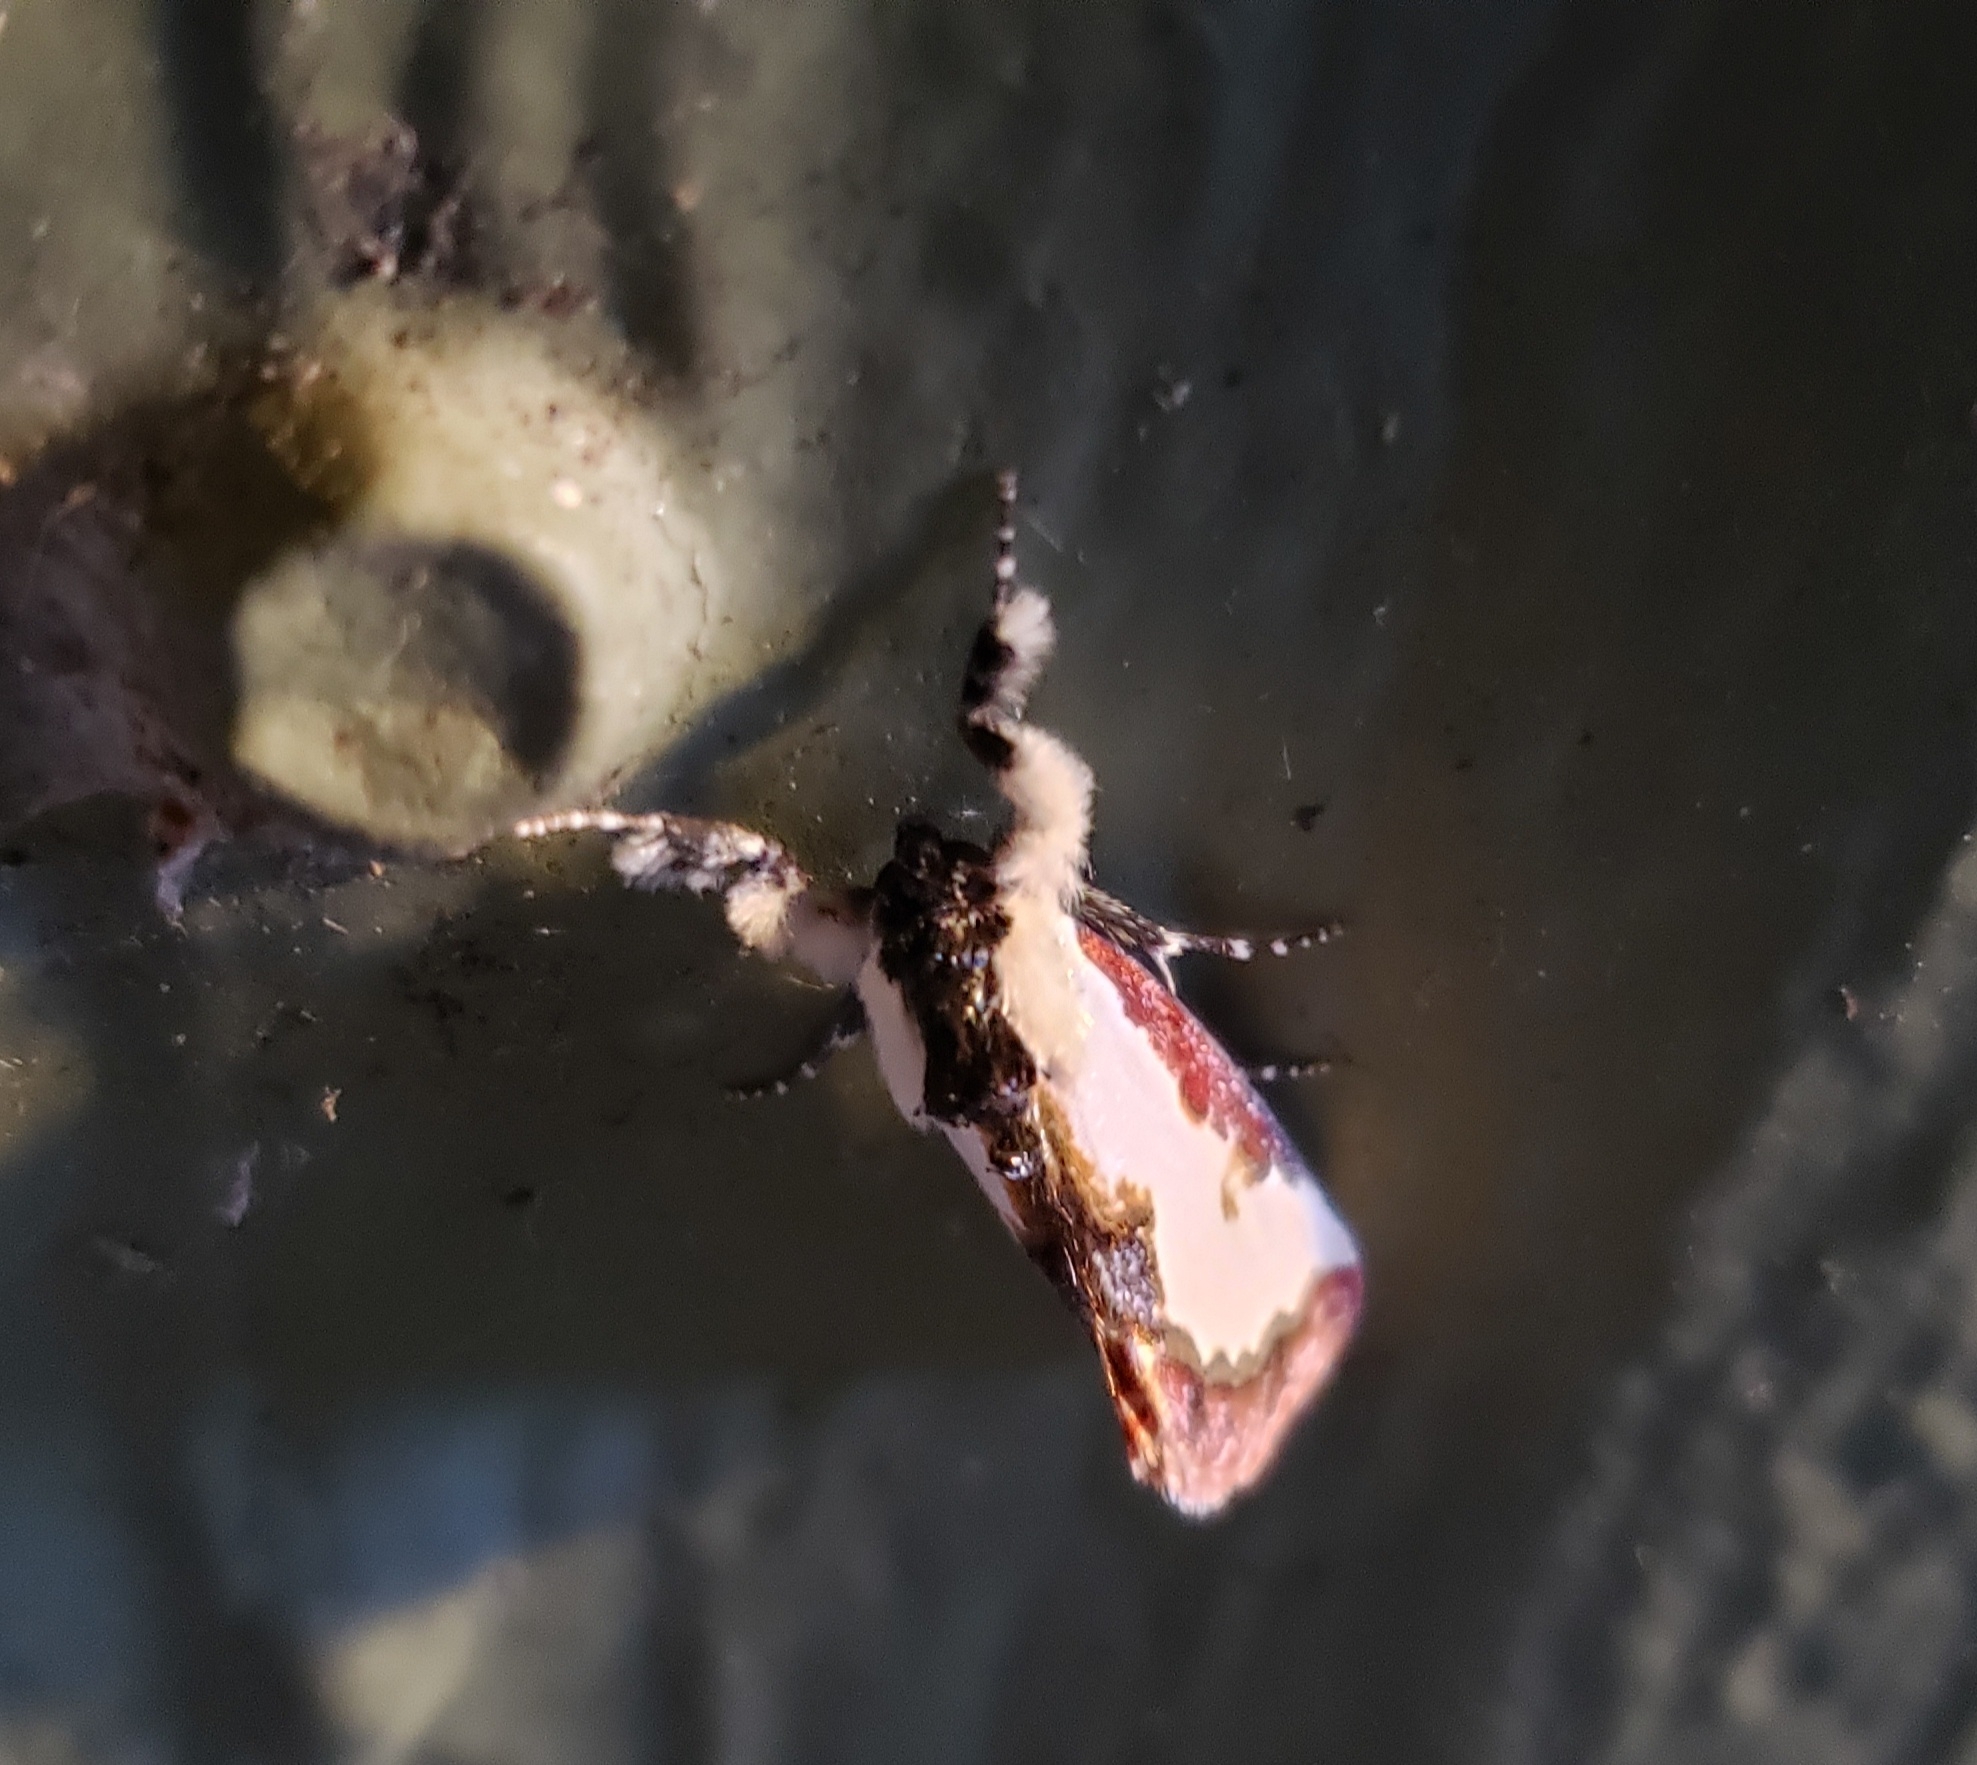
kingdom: Animalia
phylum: Arthropoda
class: Insecta
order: Lepidoptera
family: Noctuidae
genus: Eudryas
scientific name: Eudryas unio
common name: Pearly wood-nymph
